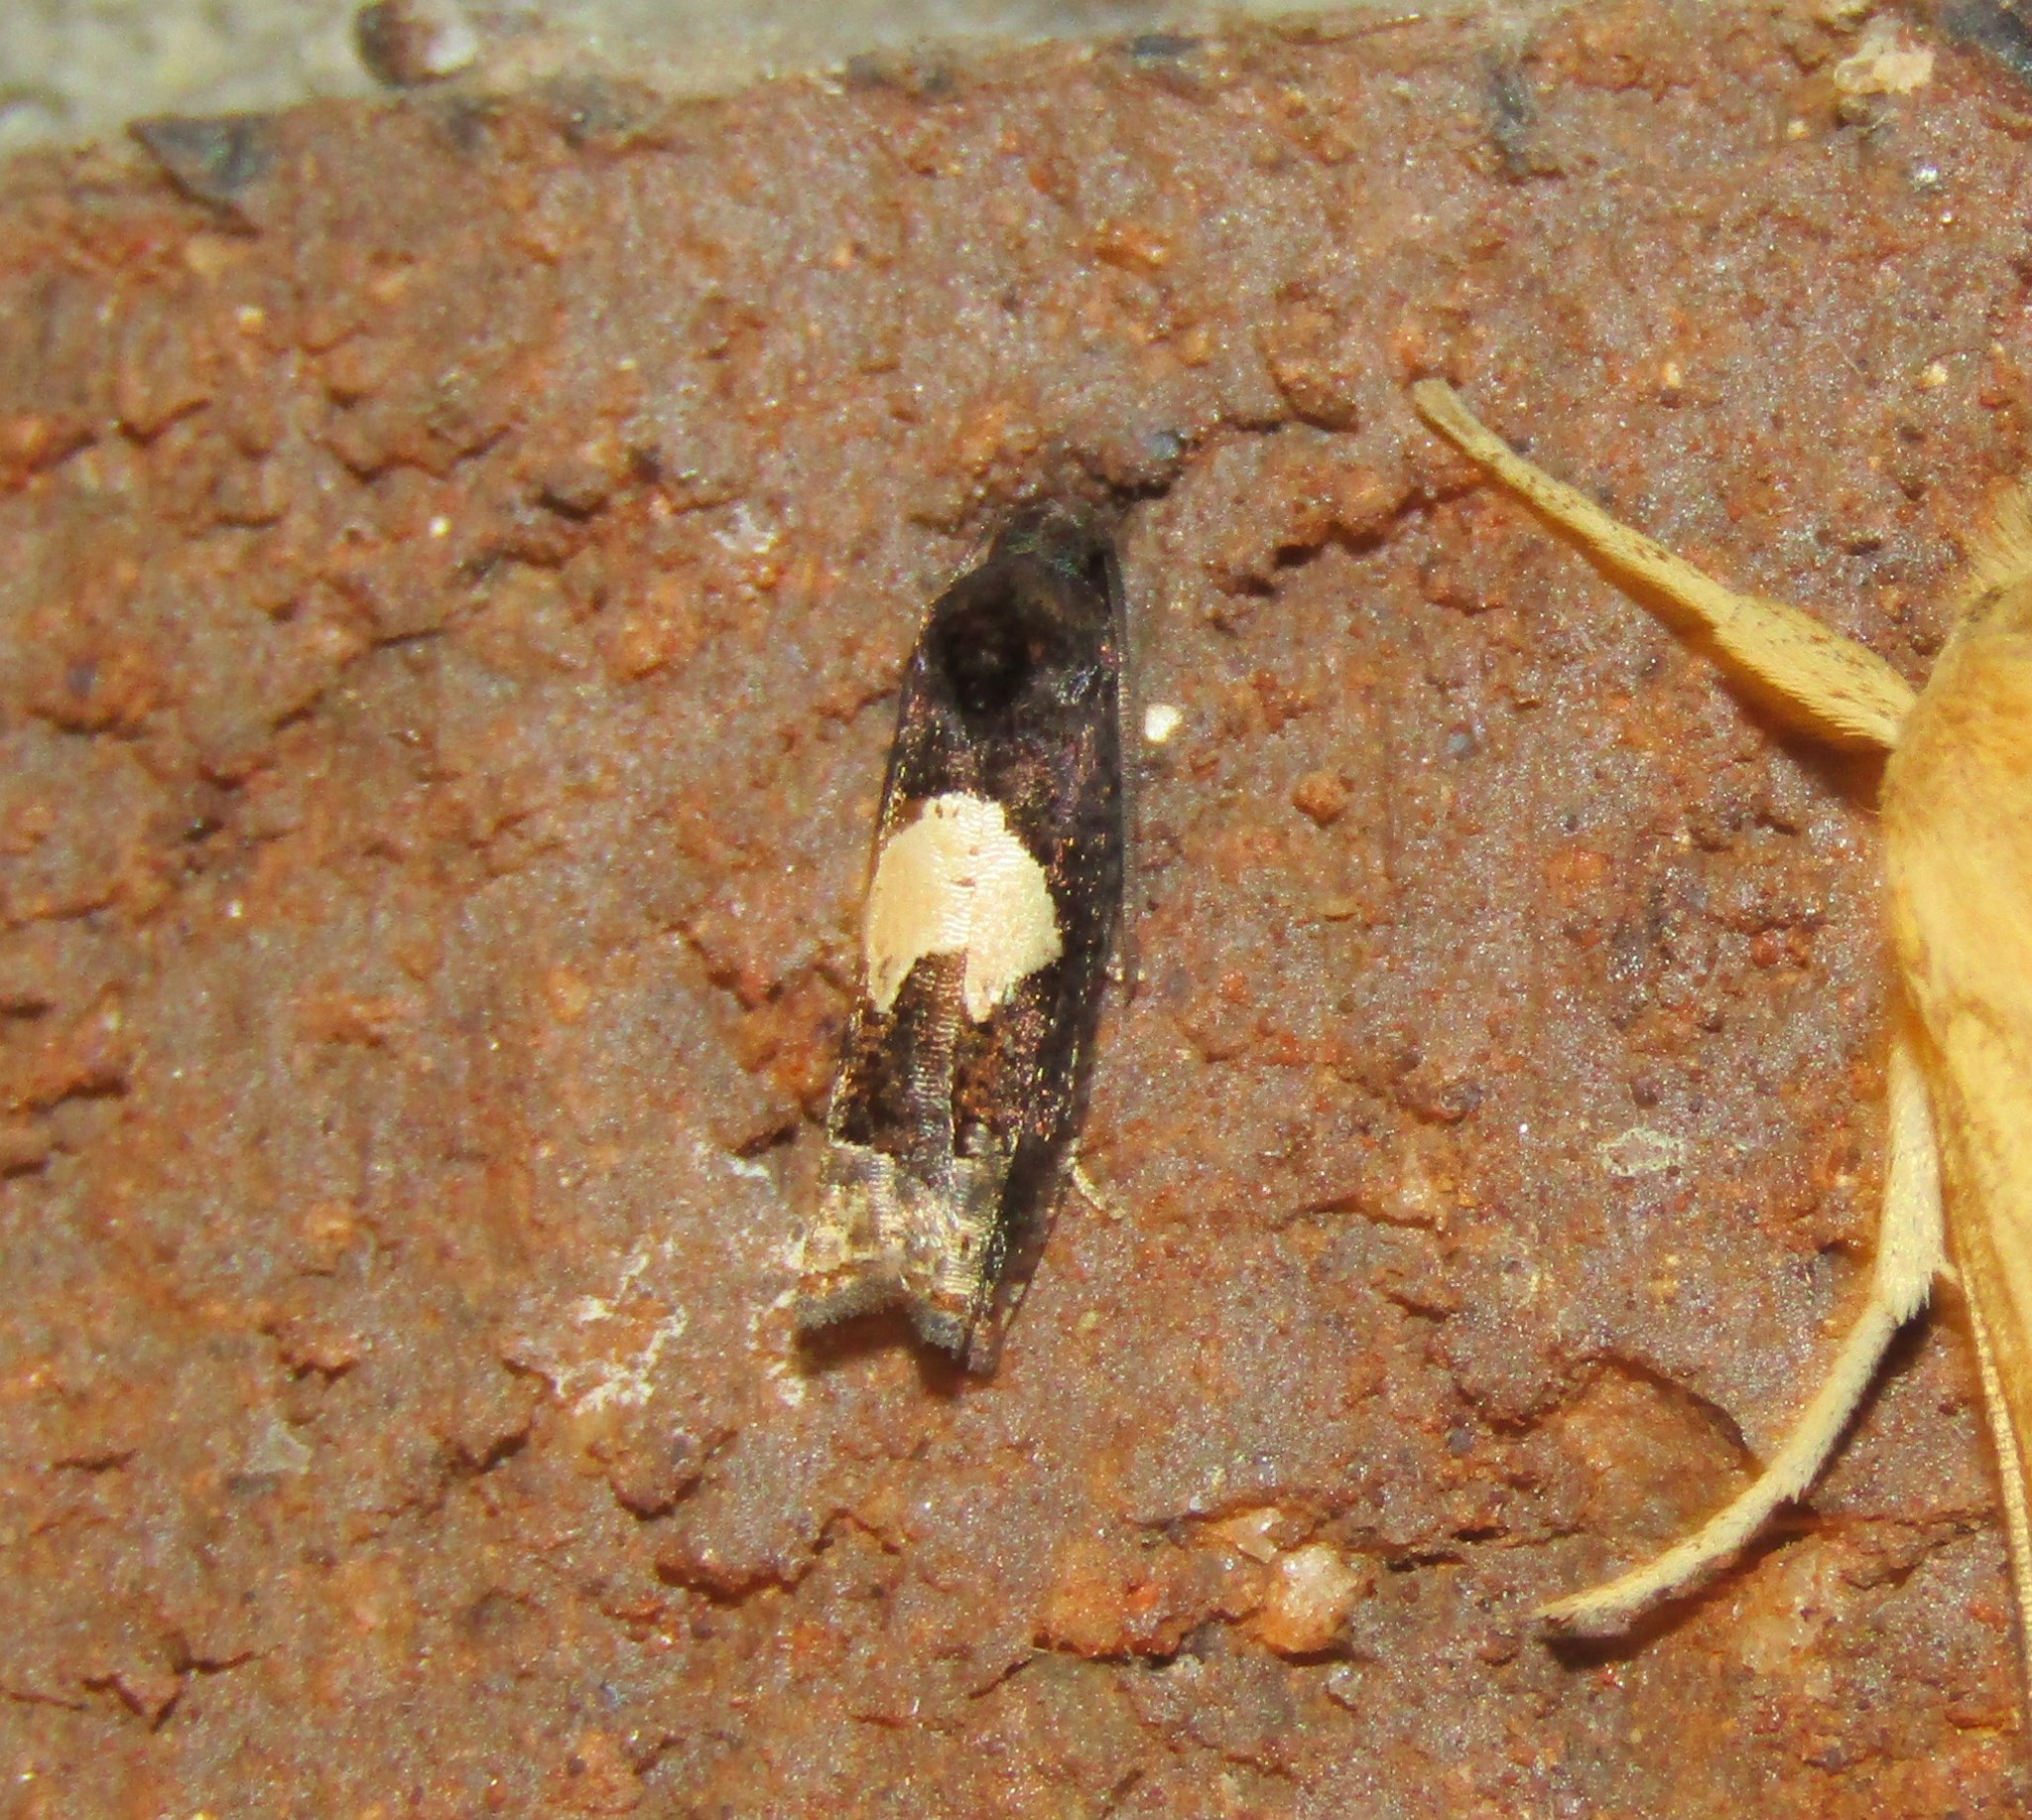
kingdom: Animalia
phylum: Arthropoda
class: Insecta
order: Lepidoptera
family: Tortricidae
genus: Epiblema
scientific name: Epiblema otiosana
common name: Bidens borer moth
